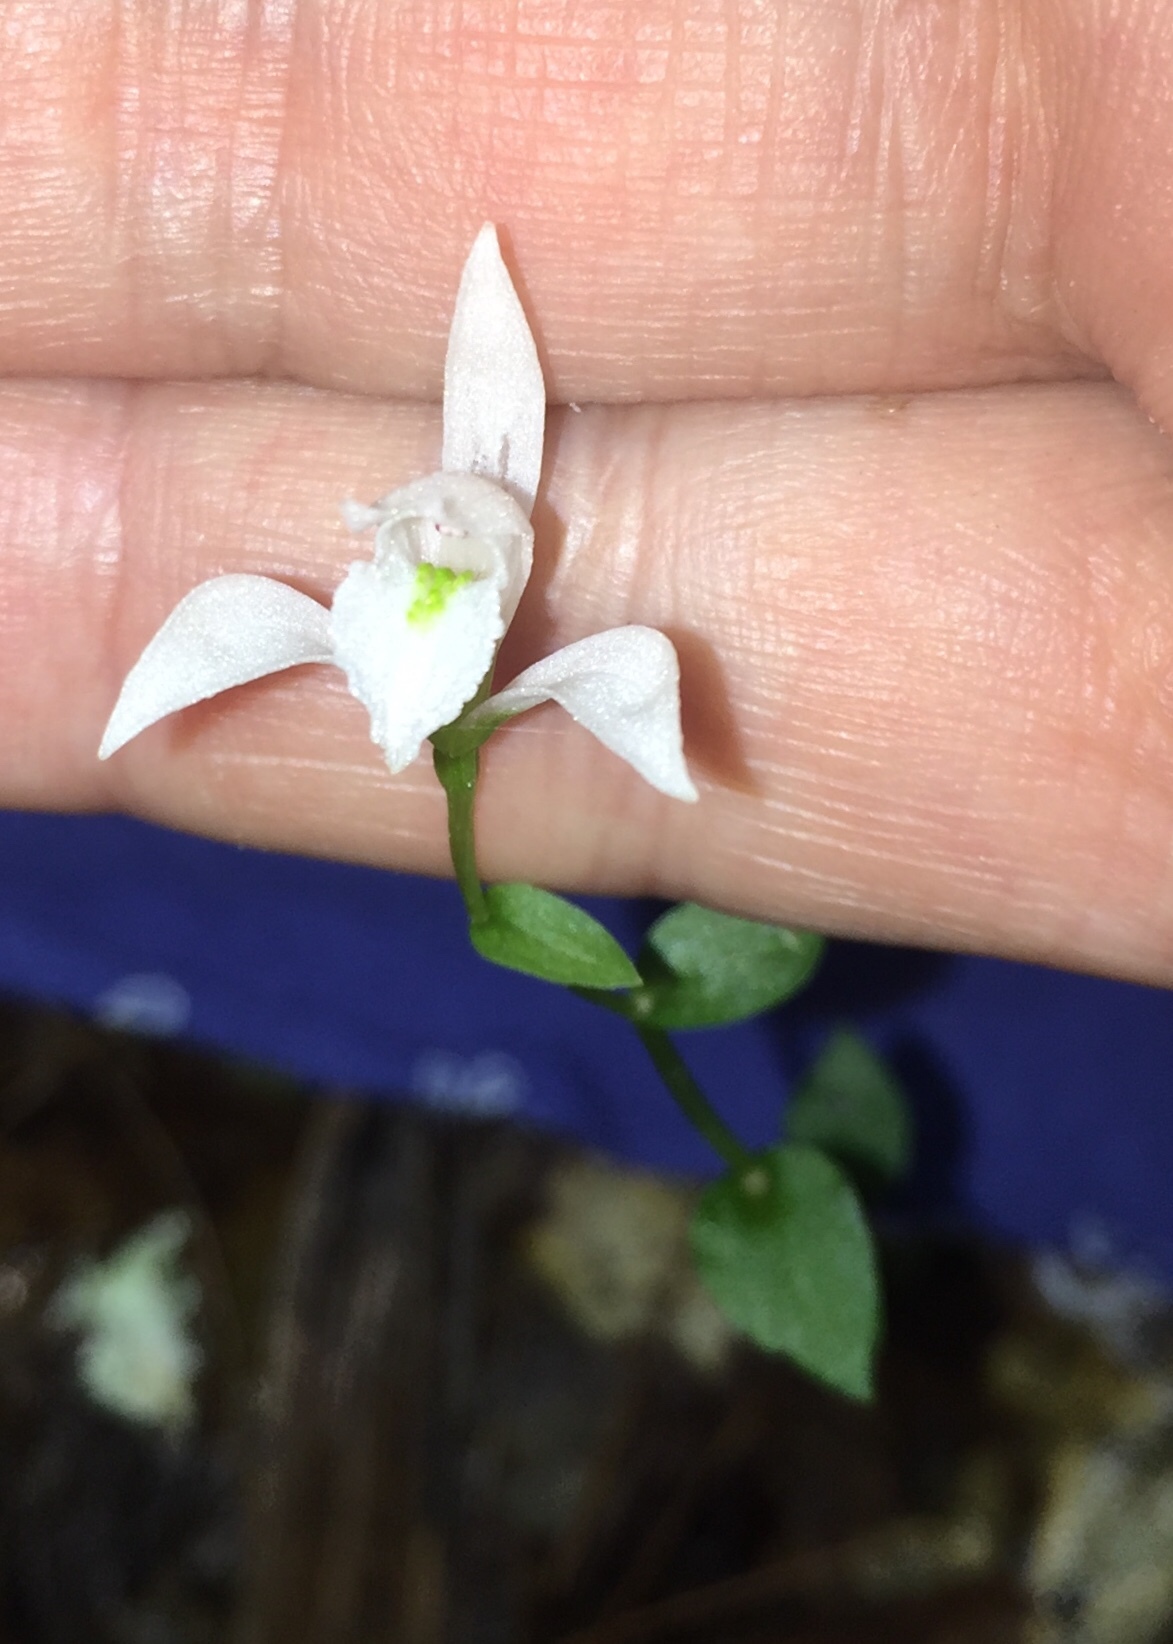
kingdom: Plantae
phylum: Tracheophyta
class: Liliopsida
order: Asparagales
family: Orchidaceae
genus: Triphora
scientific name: Triphora trianthophoros
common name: Three birds orchid
